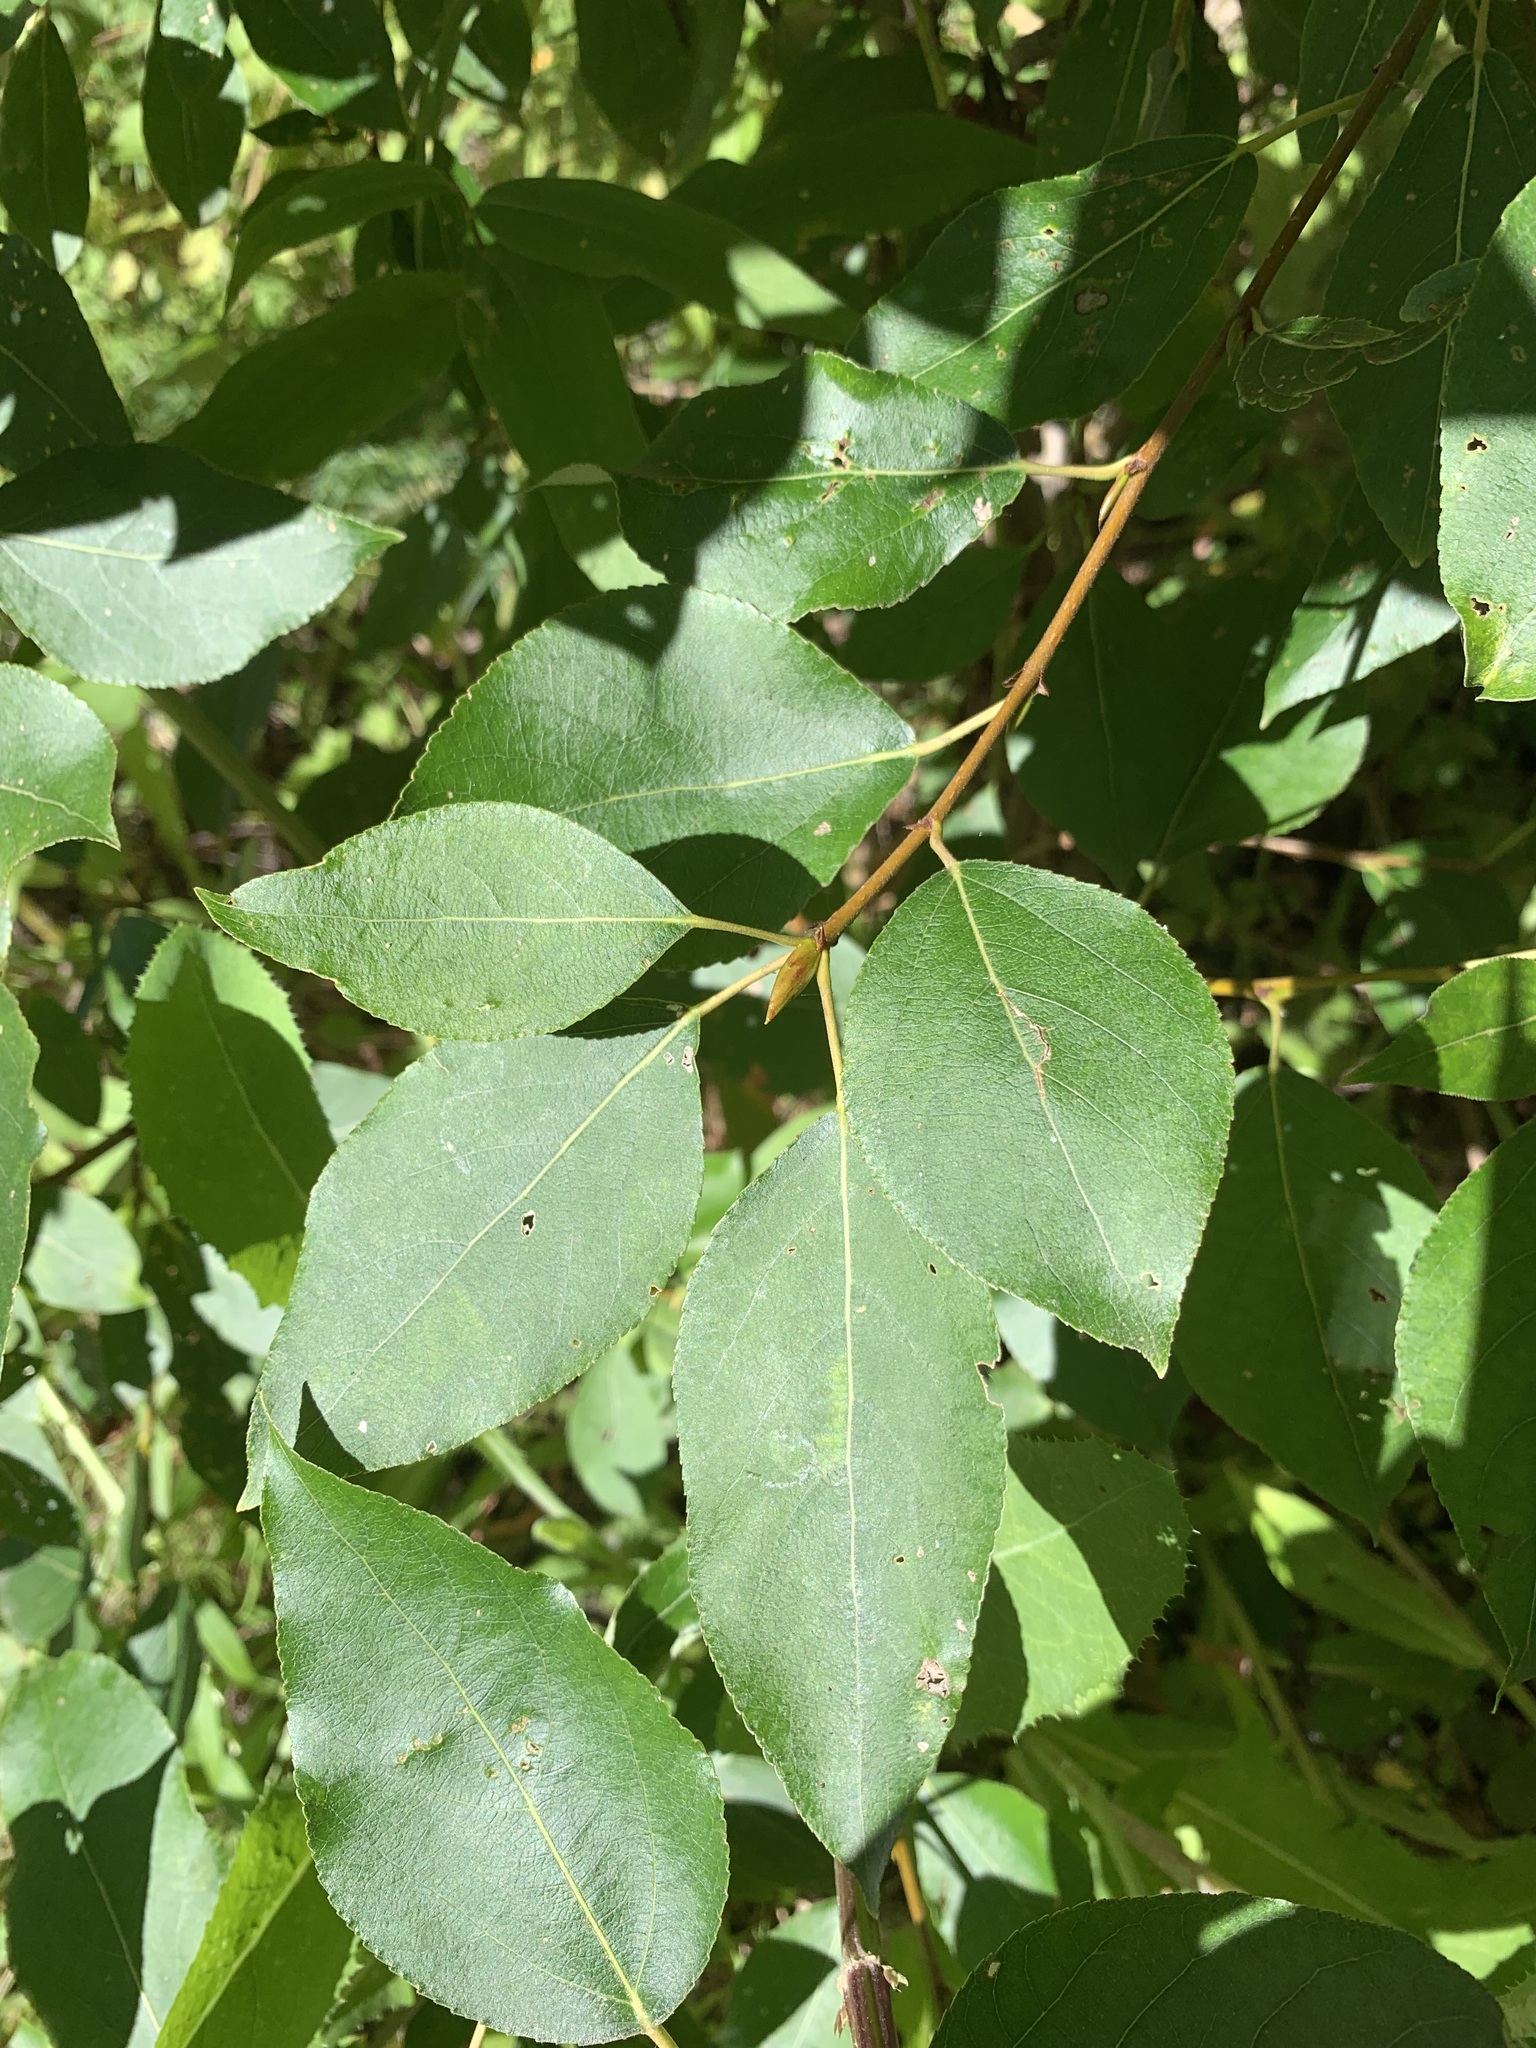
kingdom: Plantae
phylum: Tracheophyta
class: Magnoliopsida
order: Malpighiales
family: Salicaceae
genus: Populus
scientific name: Populus sibirica
